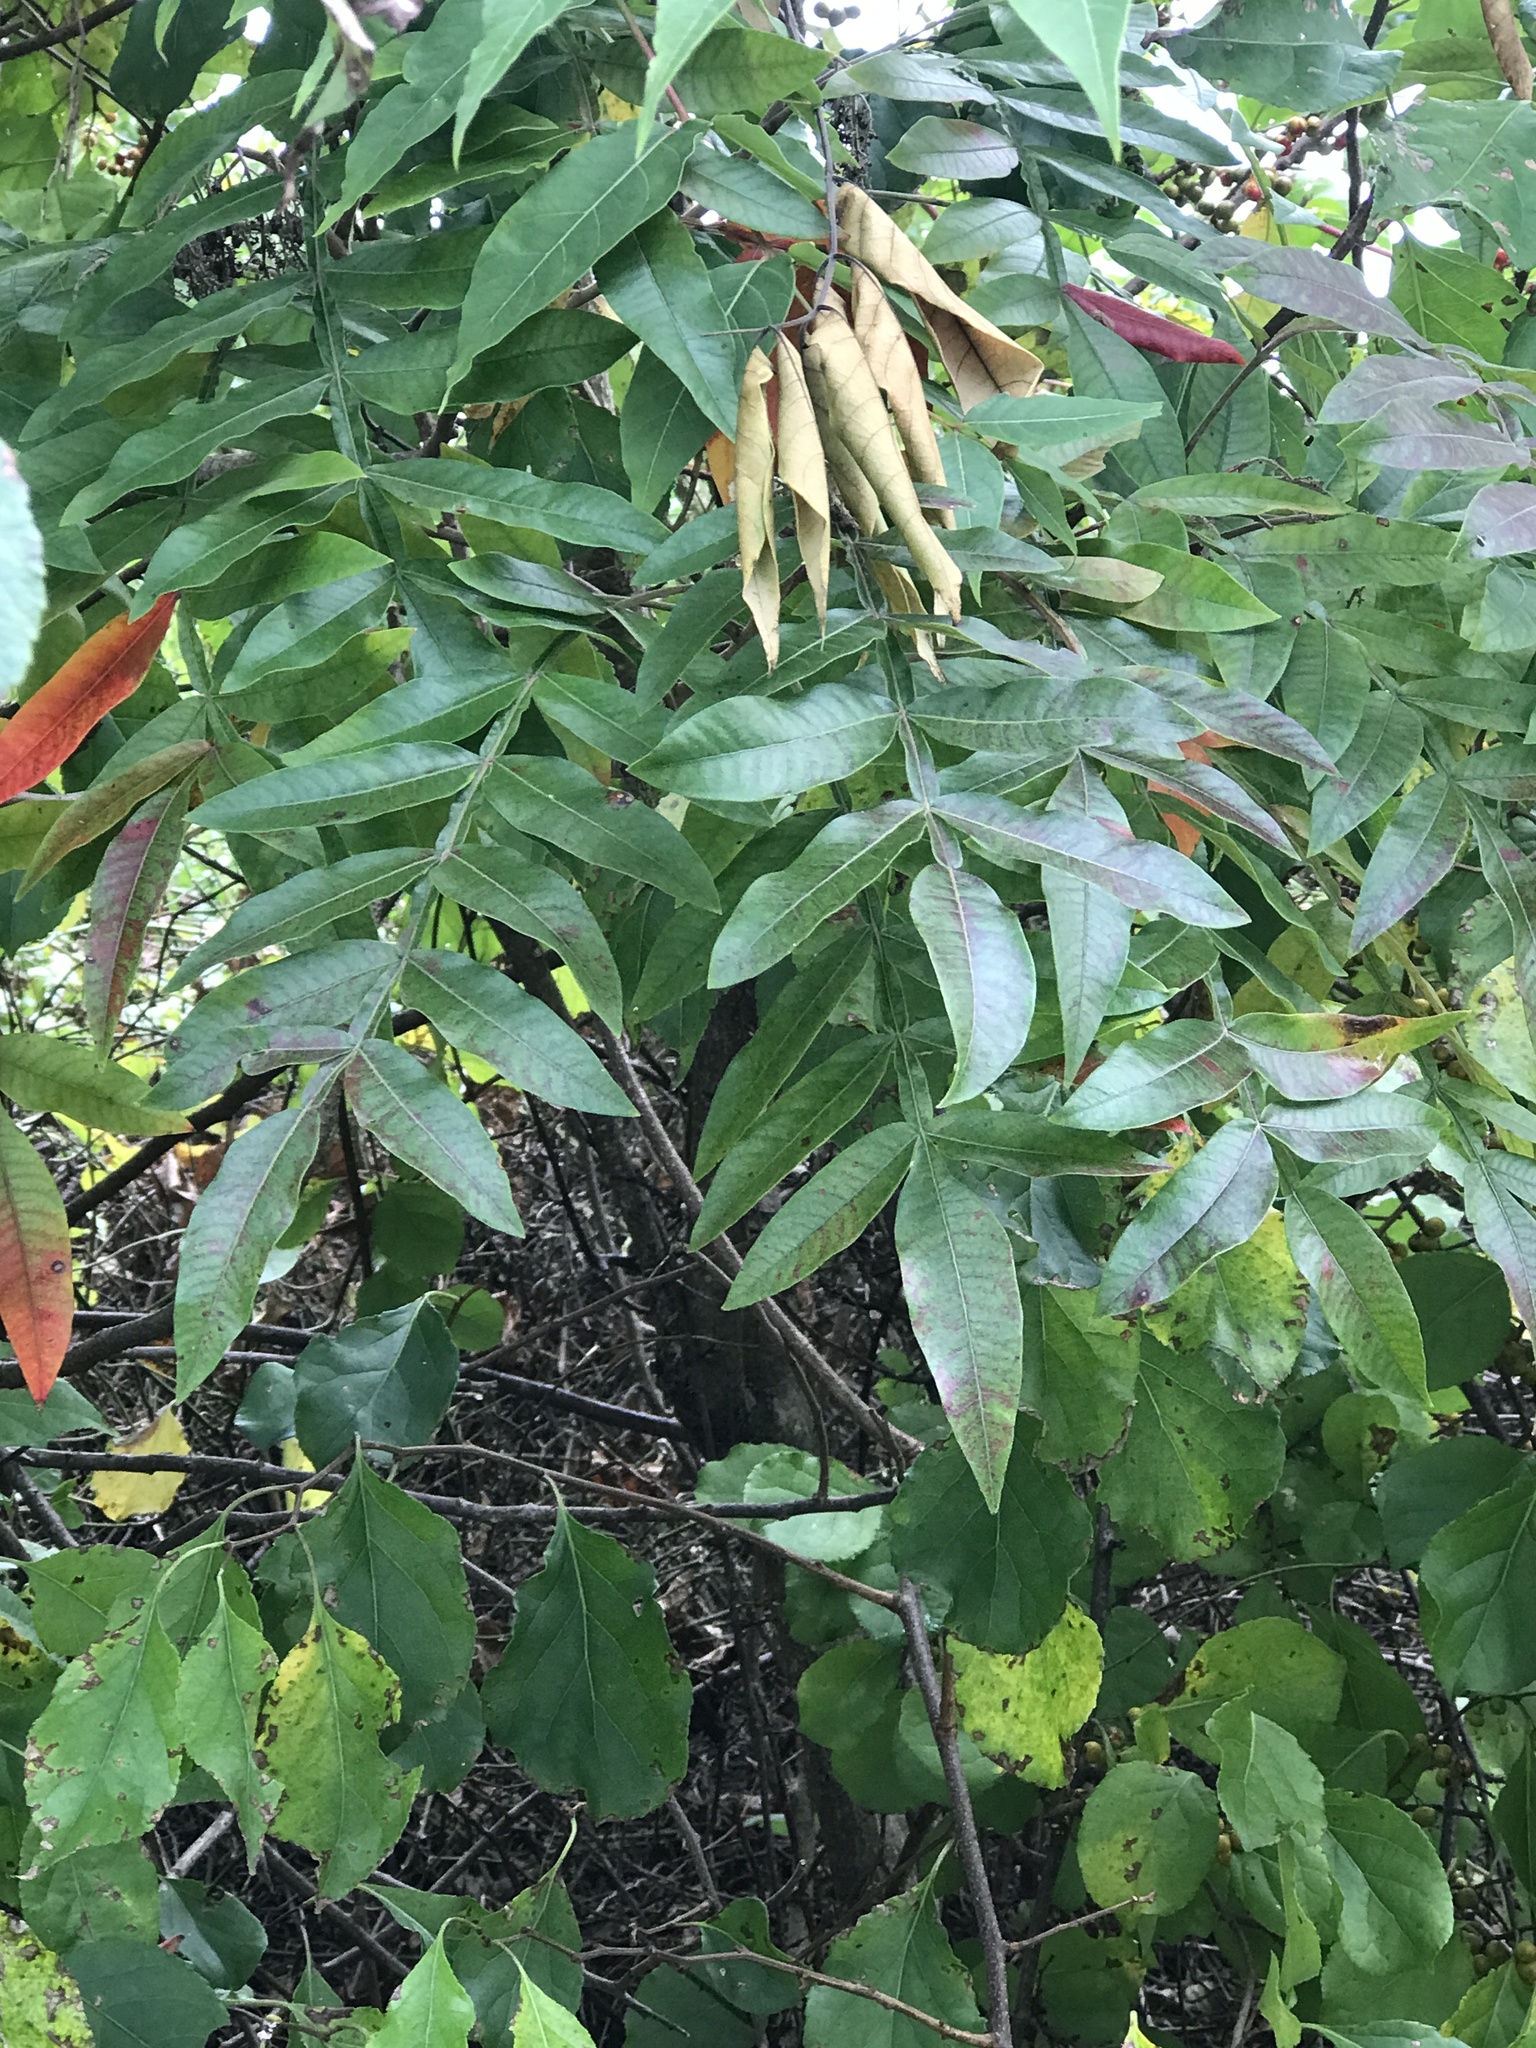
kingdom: Plantae
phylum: Tracheophyta
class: Magnoliopsida
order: Sapindales
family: Anacardiaceae
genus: Rhus
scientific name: Rhus copallina
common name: Shining sumac
